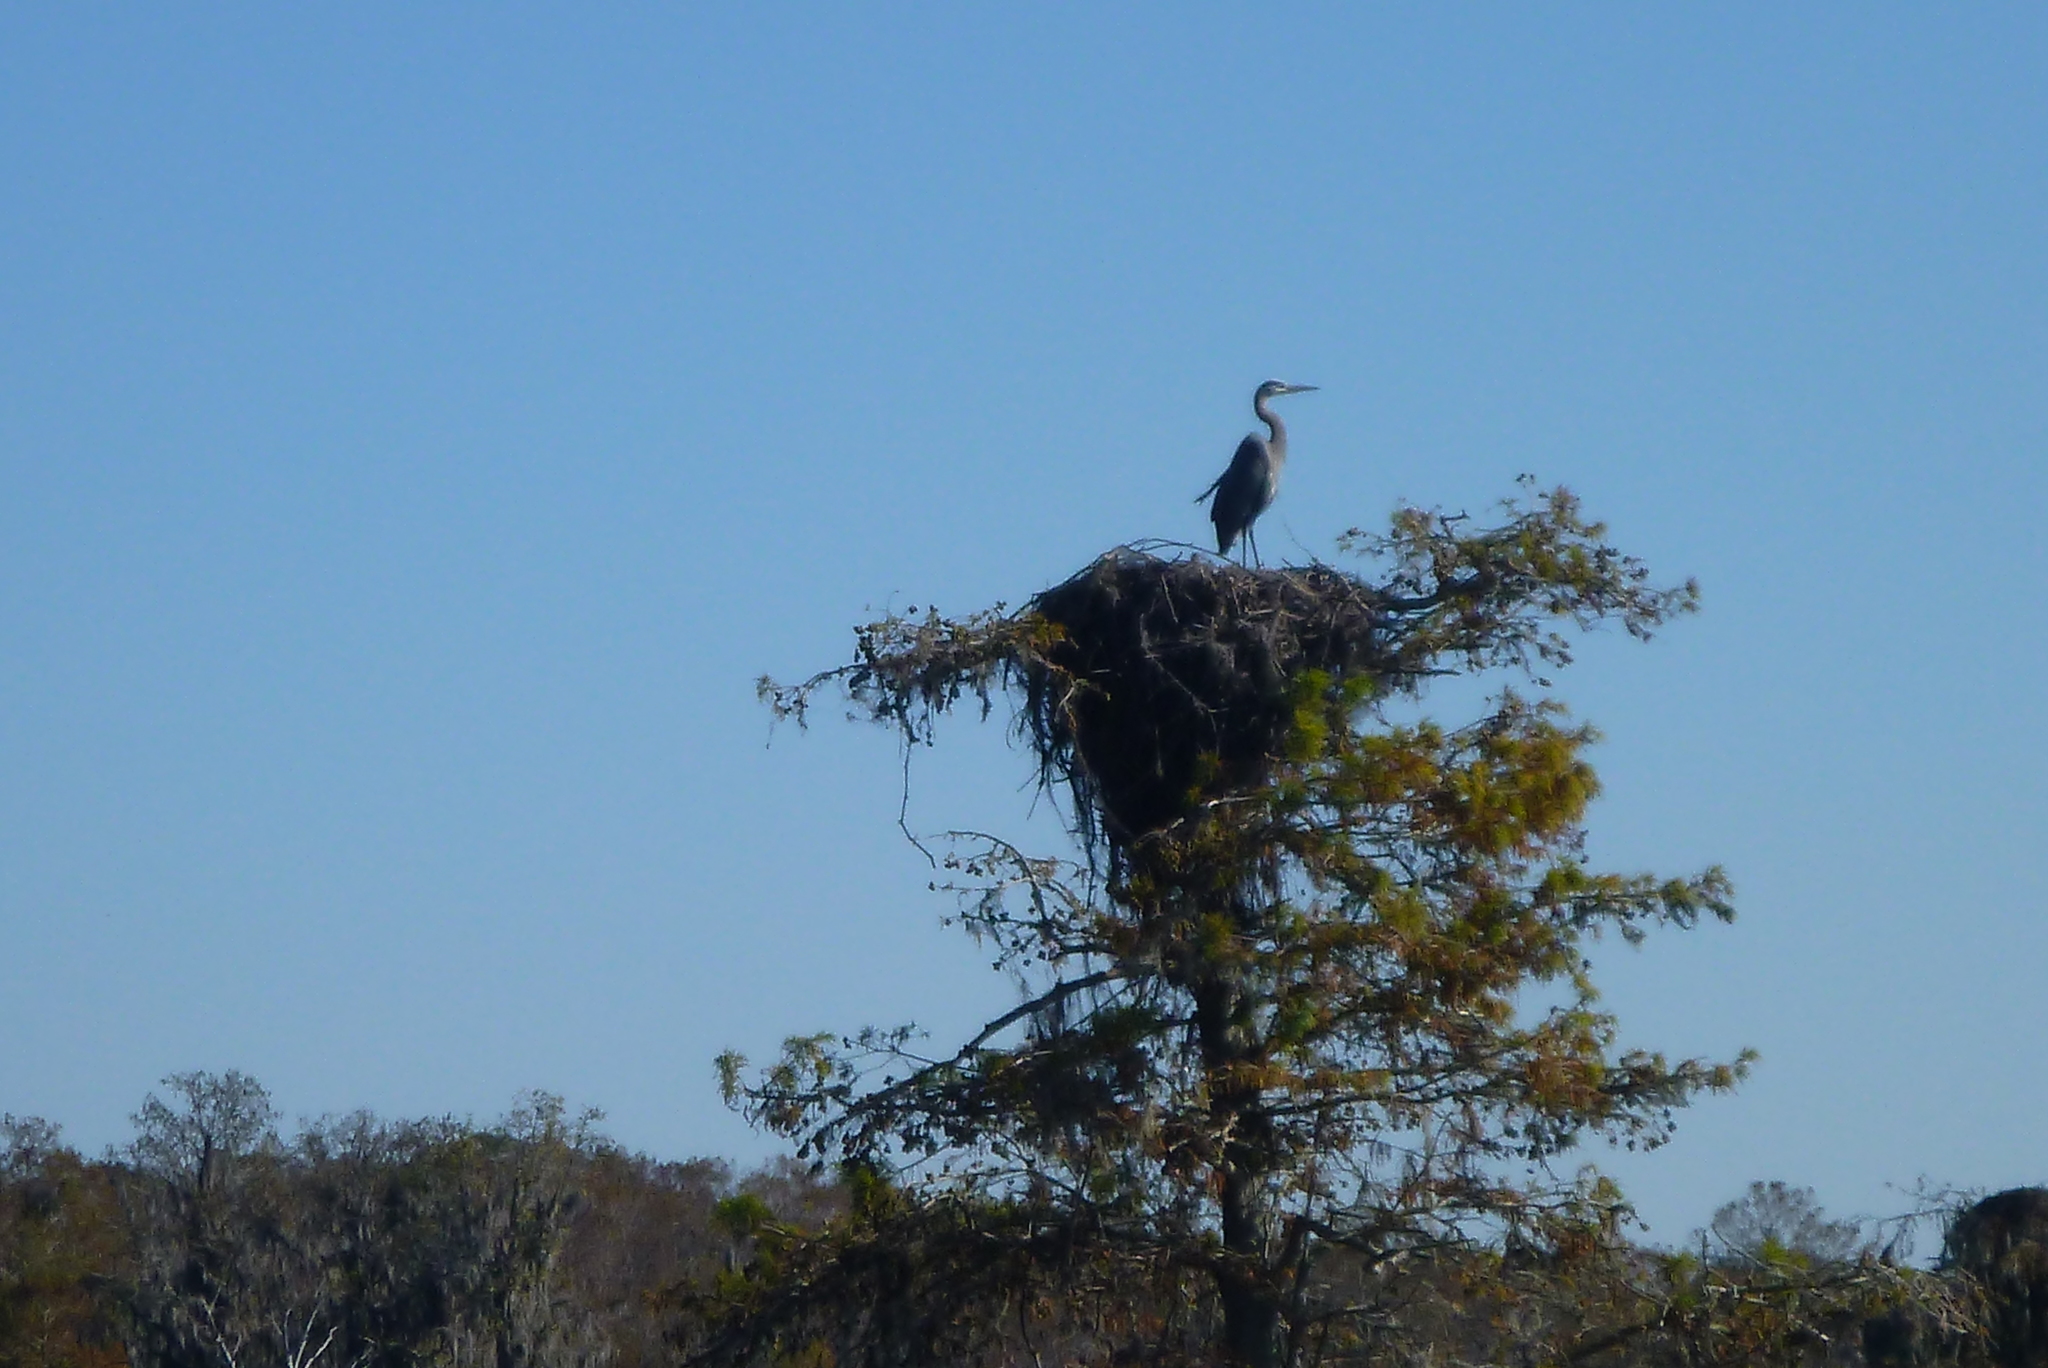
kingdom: Animalia
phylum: Chordata
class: Aves
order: Pelecaniformes
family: Ardeidae
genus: Ardea
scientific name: Ardea herodias
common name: Great blue heron
